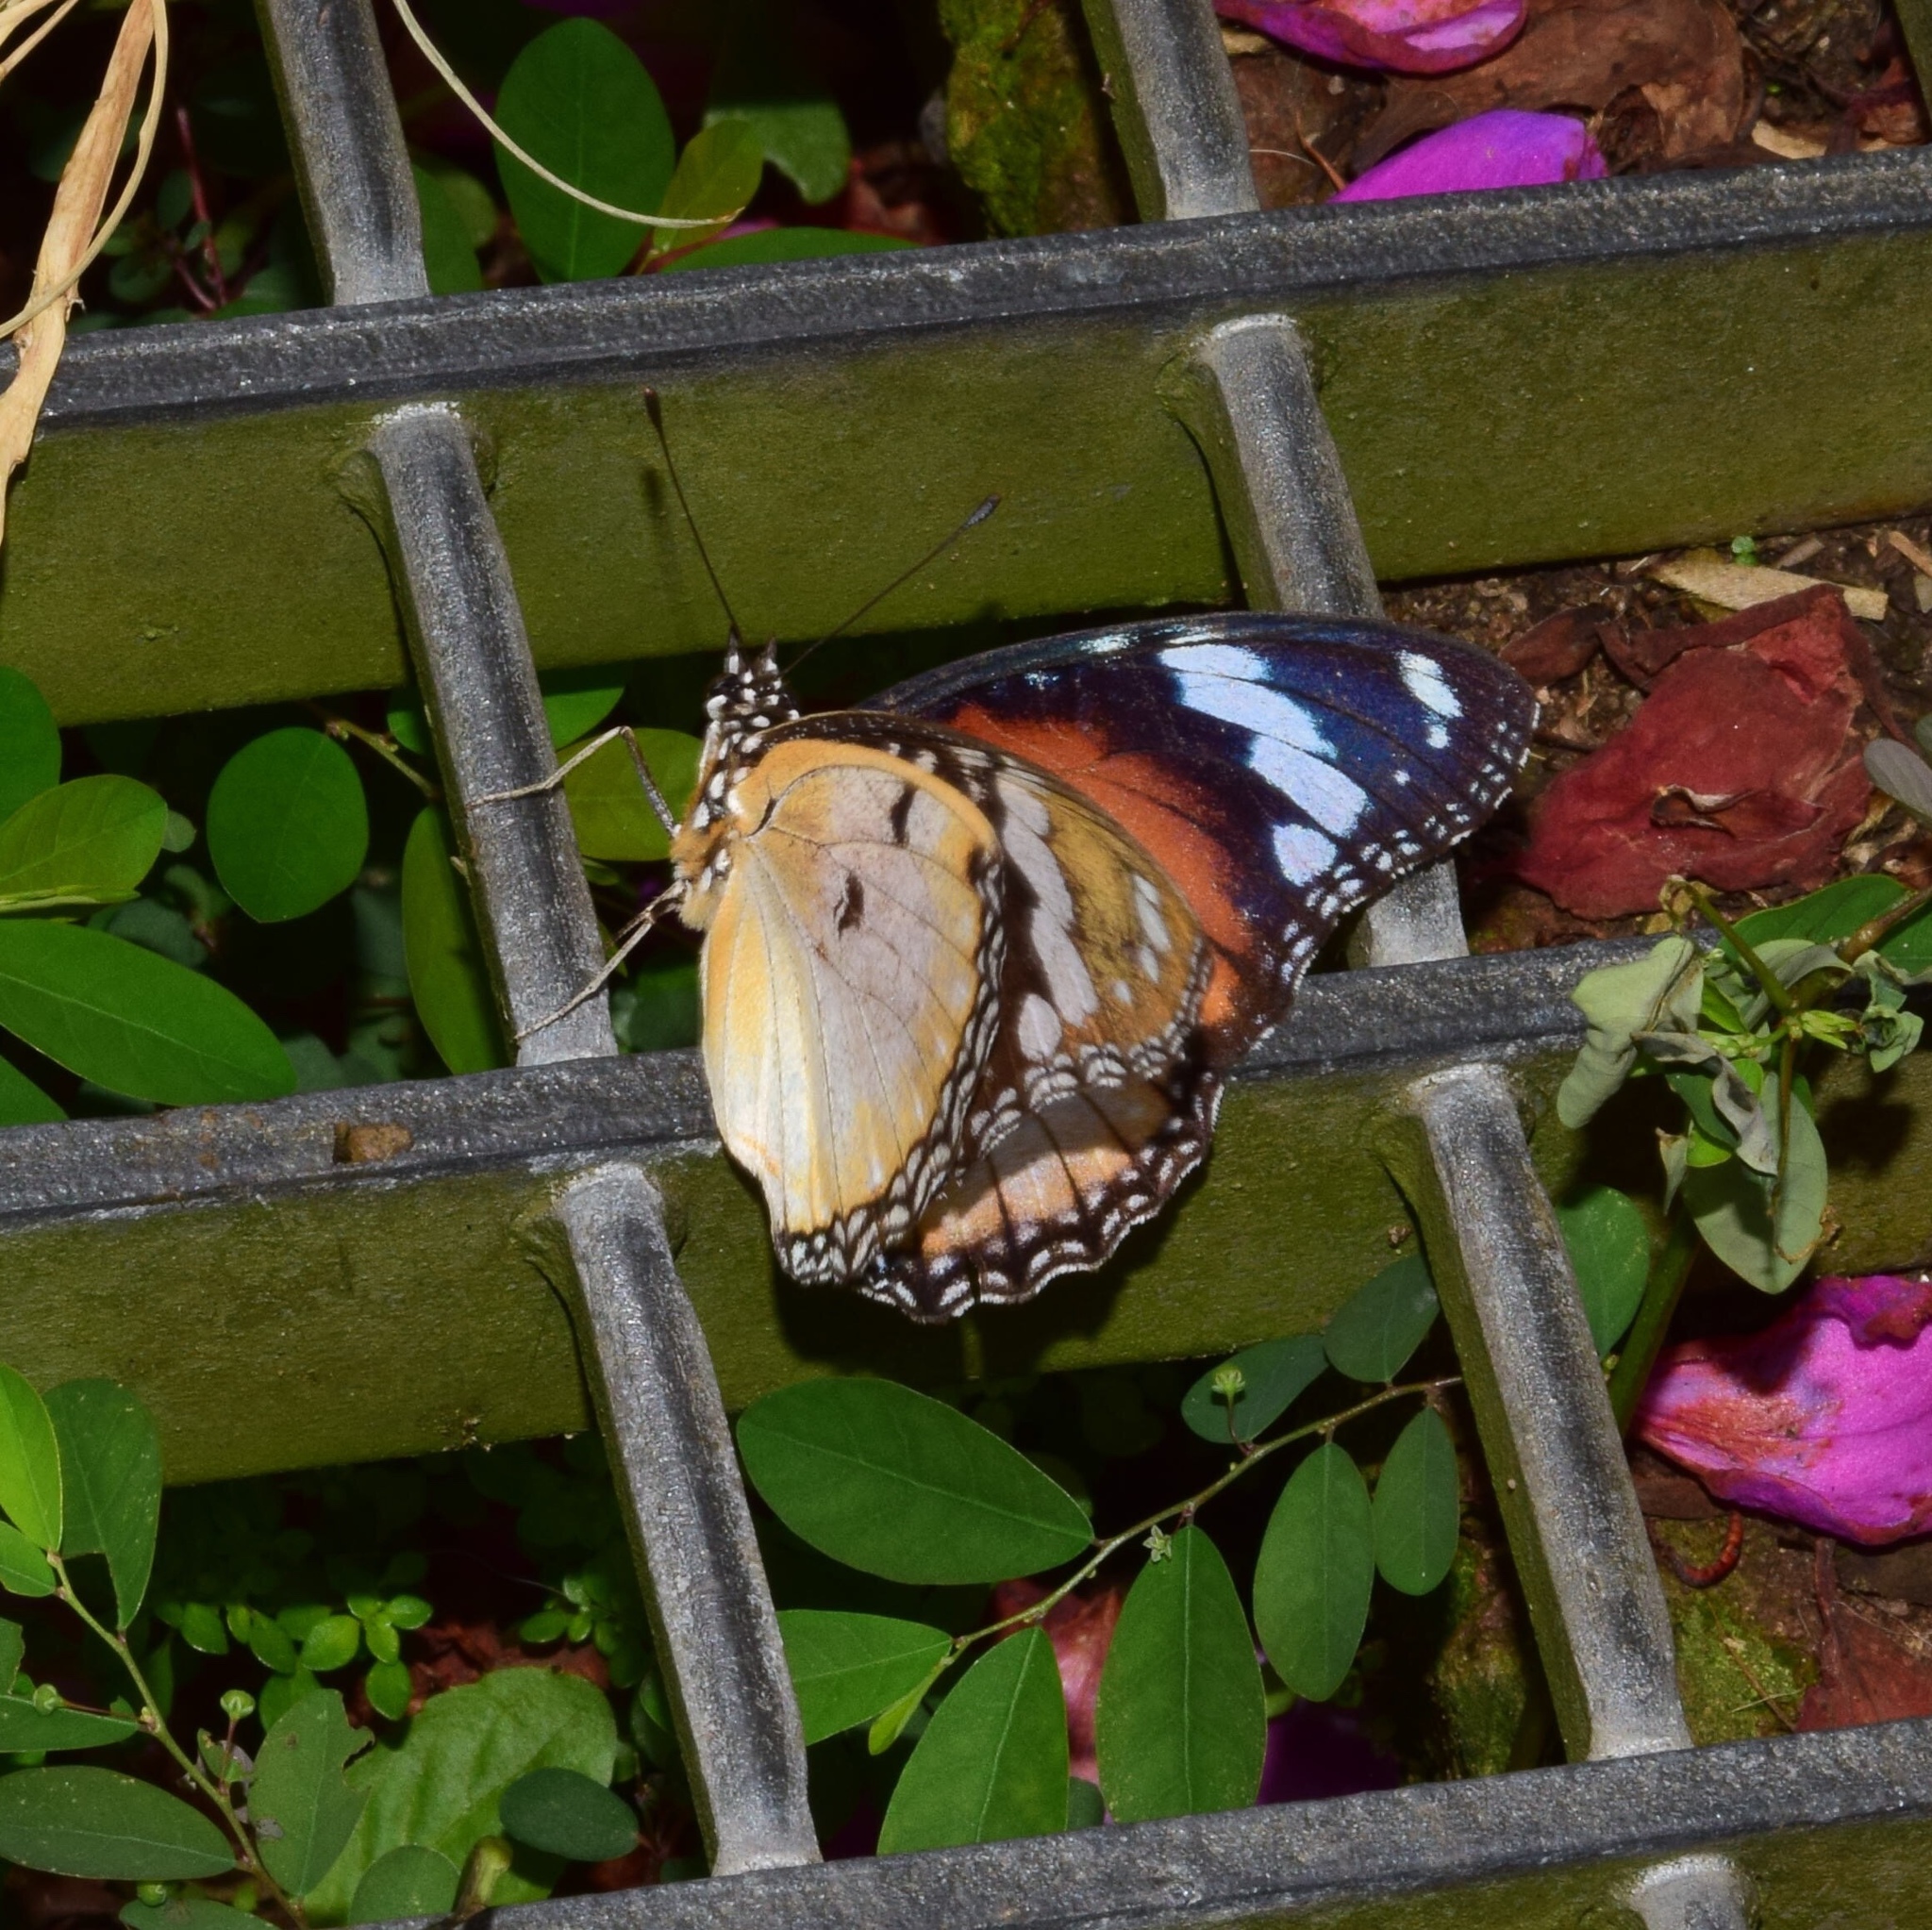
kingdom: Animalia
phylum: Arthropoda
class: Insecta
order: Lepidoptera
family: Nymphalidae
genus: Hypolimnas
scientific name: Hypolimnas misippus
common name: False plain tiger
